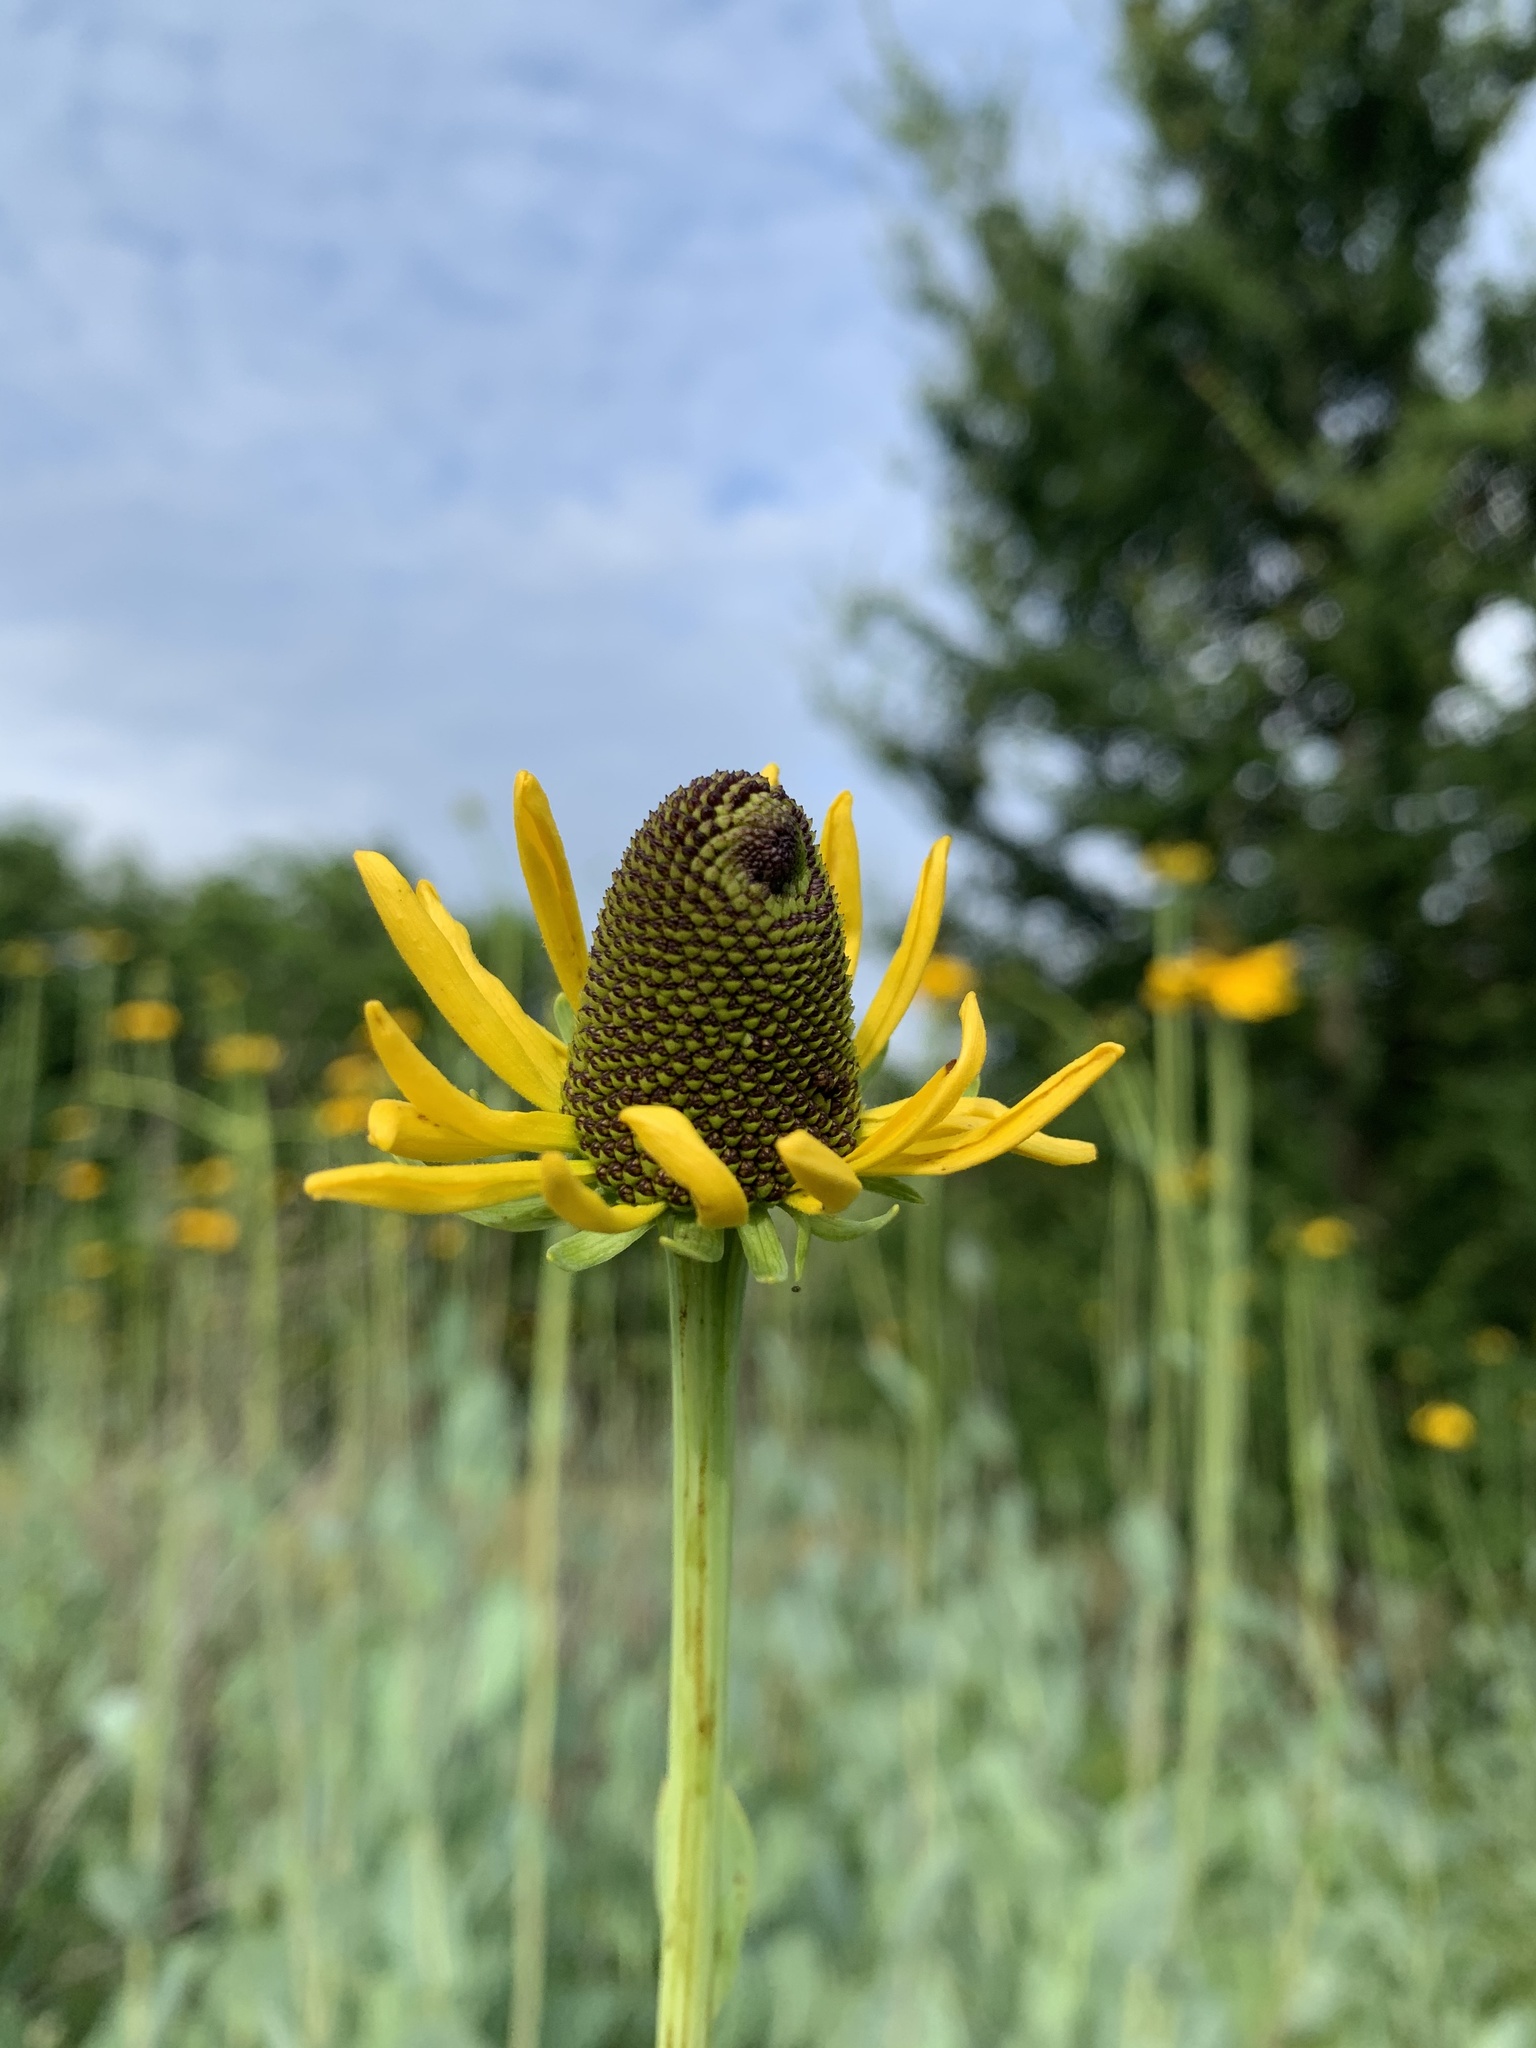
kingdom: Plantae
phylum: Tracheophyta
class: Magnoliopsida
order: Asterales
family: Asteraceae
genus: Rudbeckia
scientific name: Rudbeckia maxima
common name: Cabbage coneflower
